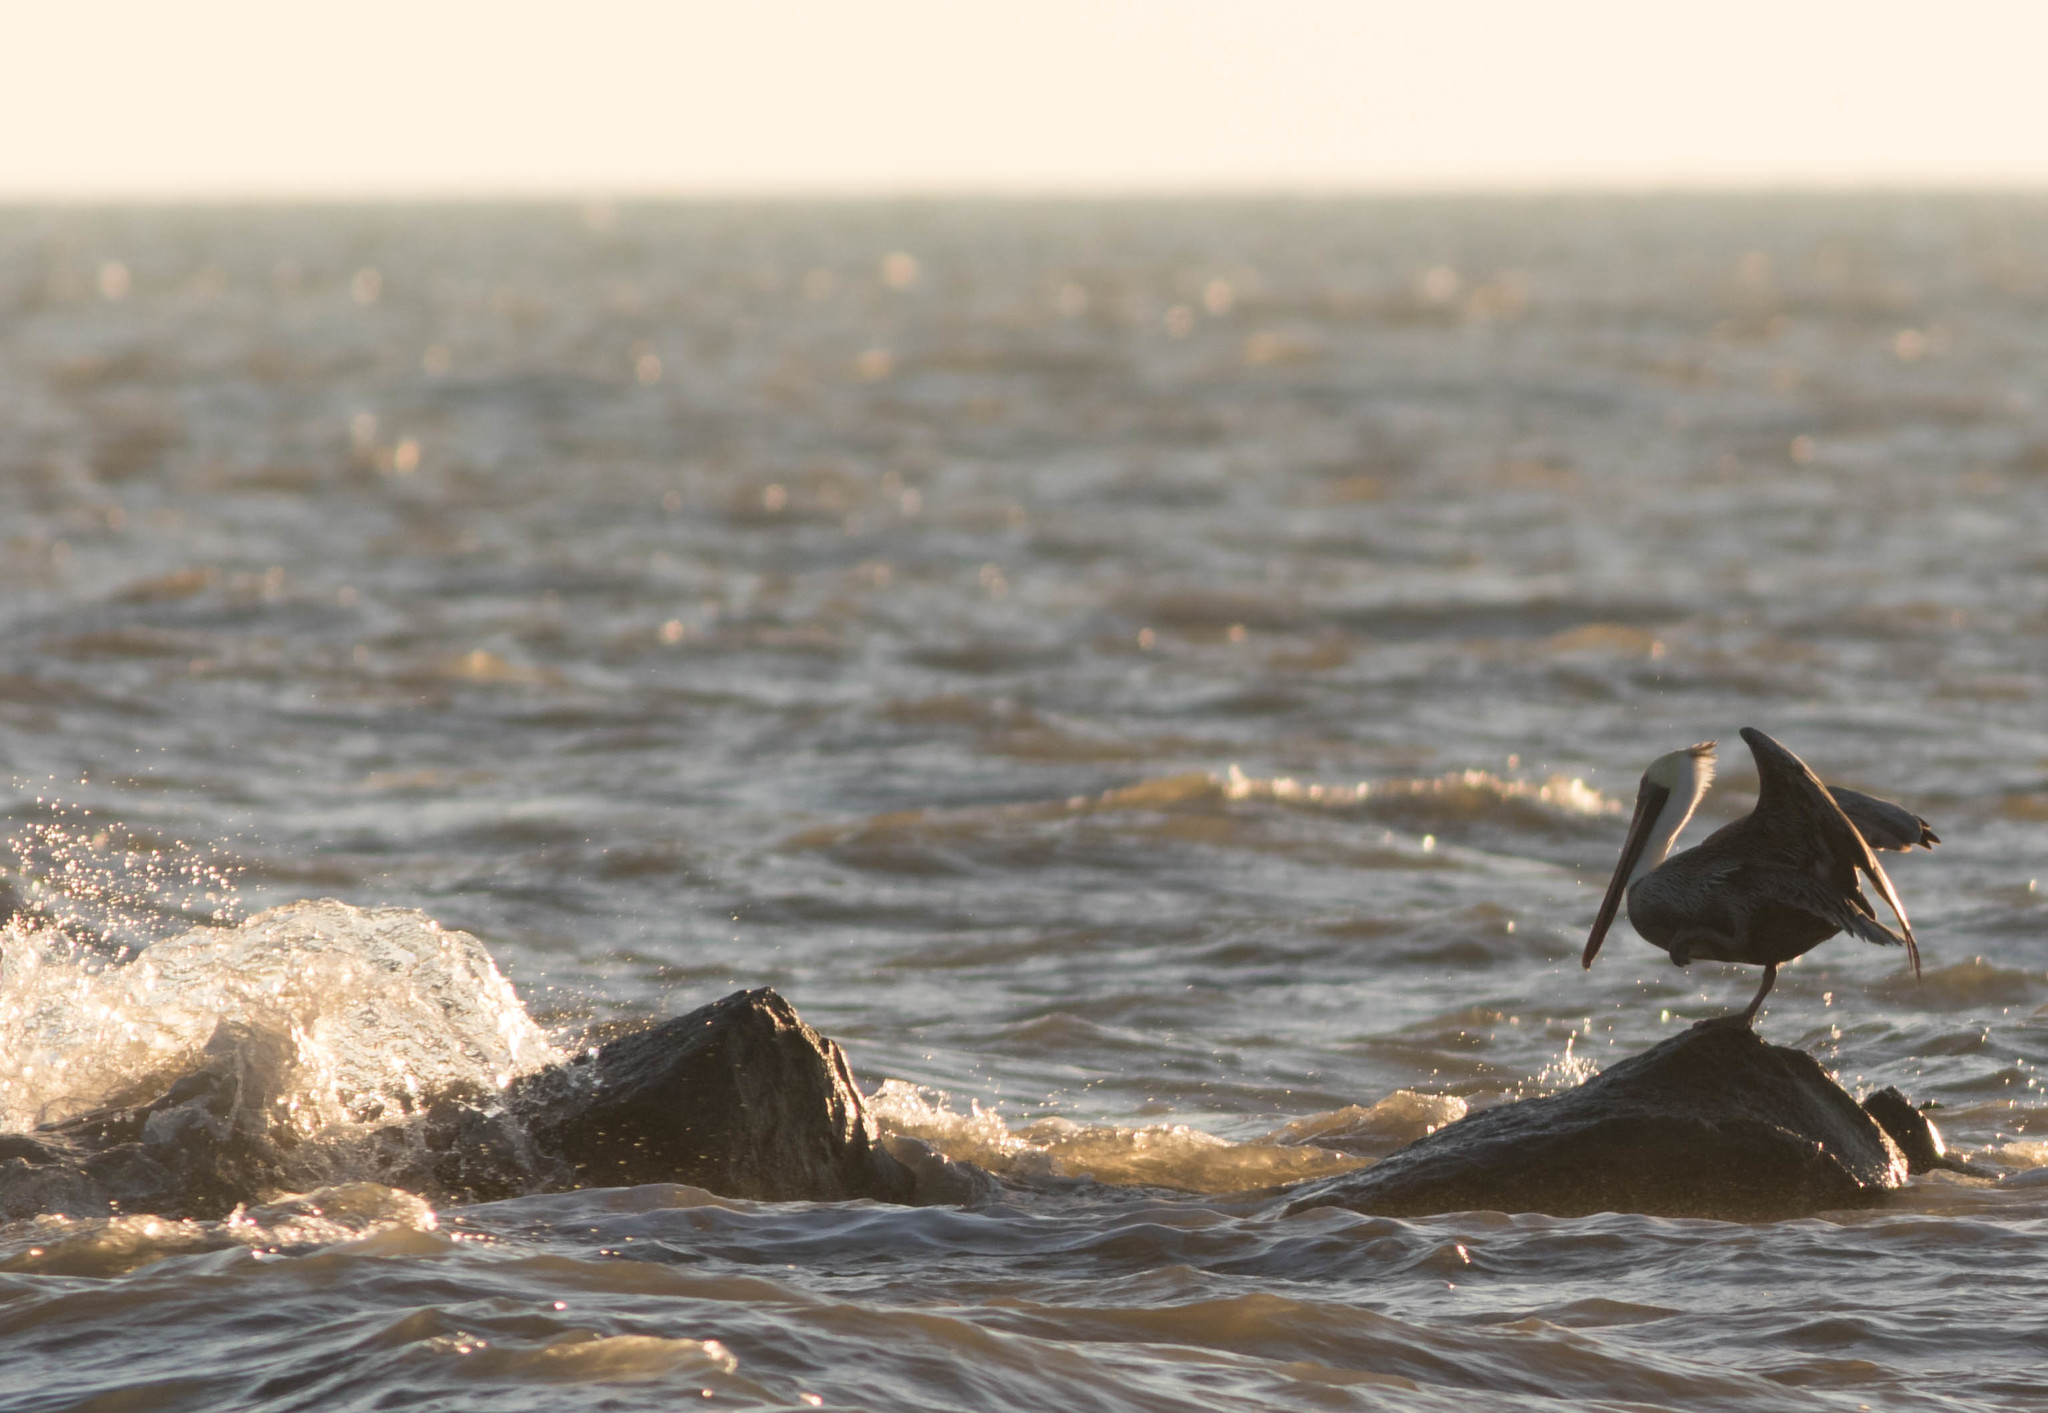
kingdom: Animalia
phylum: Chordata
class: Aves
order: Pelecaniformes
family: Pelecanidae
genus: Pelecanus
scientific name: Pelecanus occidentalis
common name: Brown pelican
